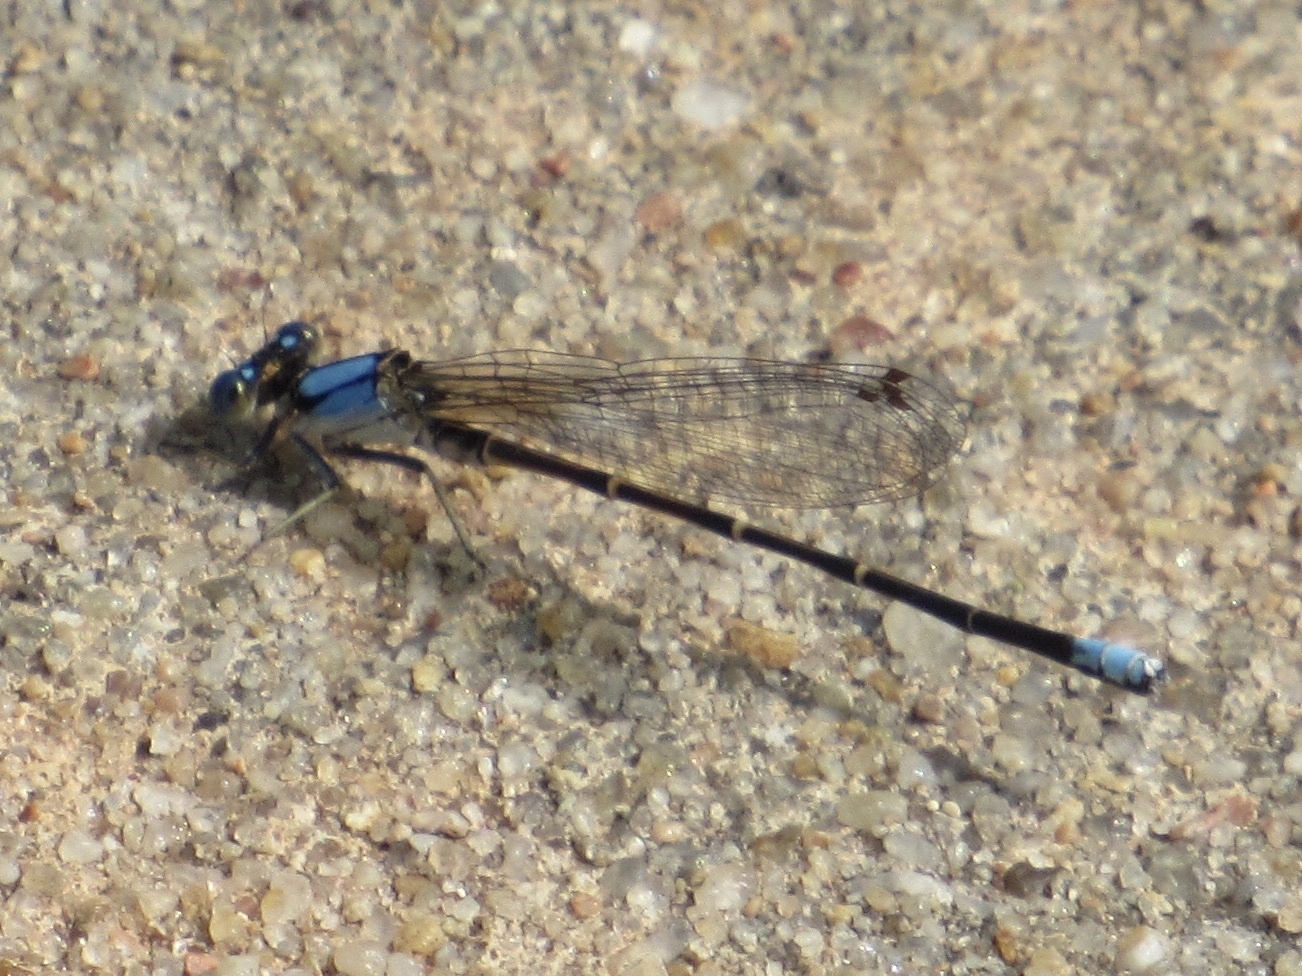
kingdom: Animalia
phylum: Arthropoda
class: Insecta
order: Odonata
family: Coenagrionidae
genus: Argia
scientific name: Argia apicalis
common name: Blue-fronted dancer
